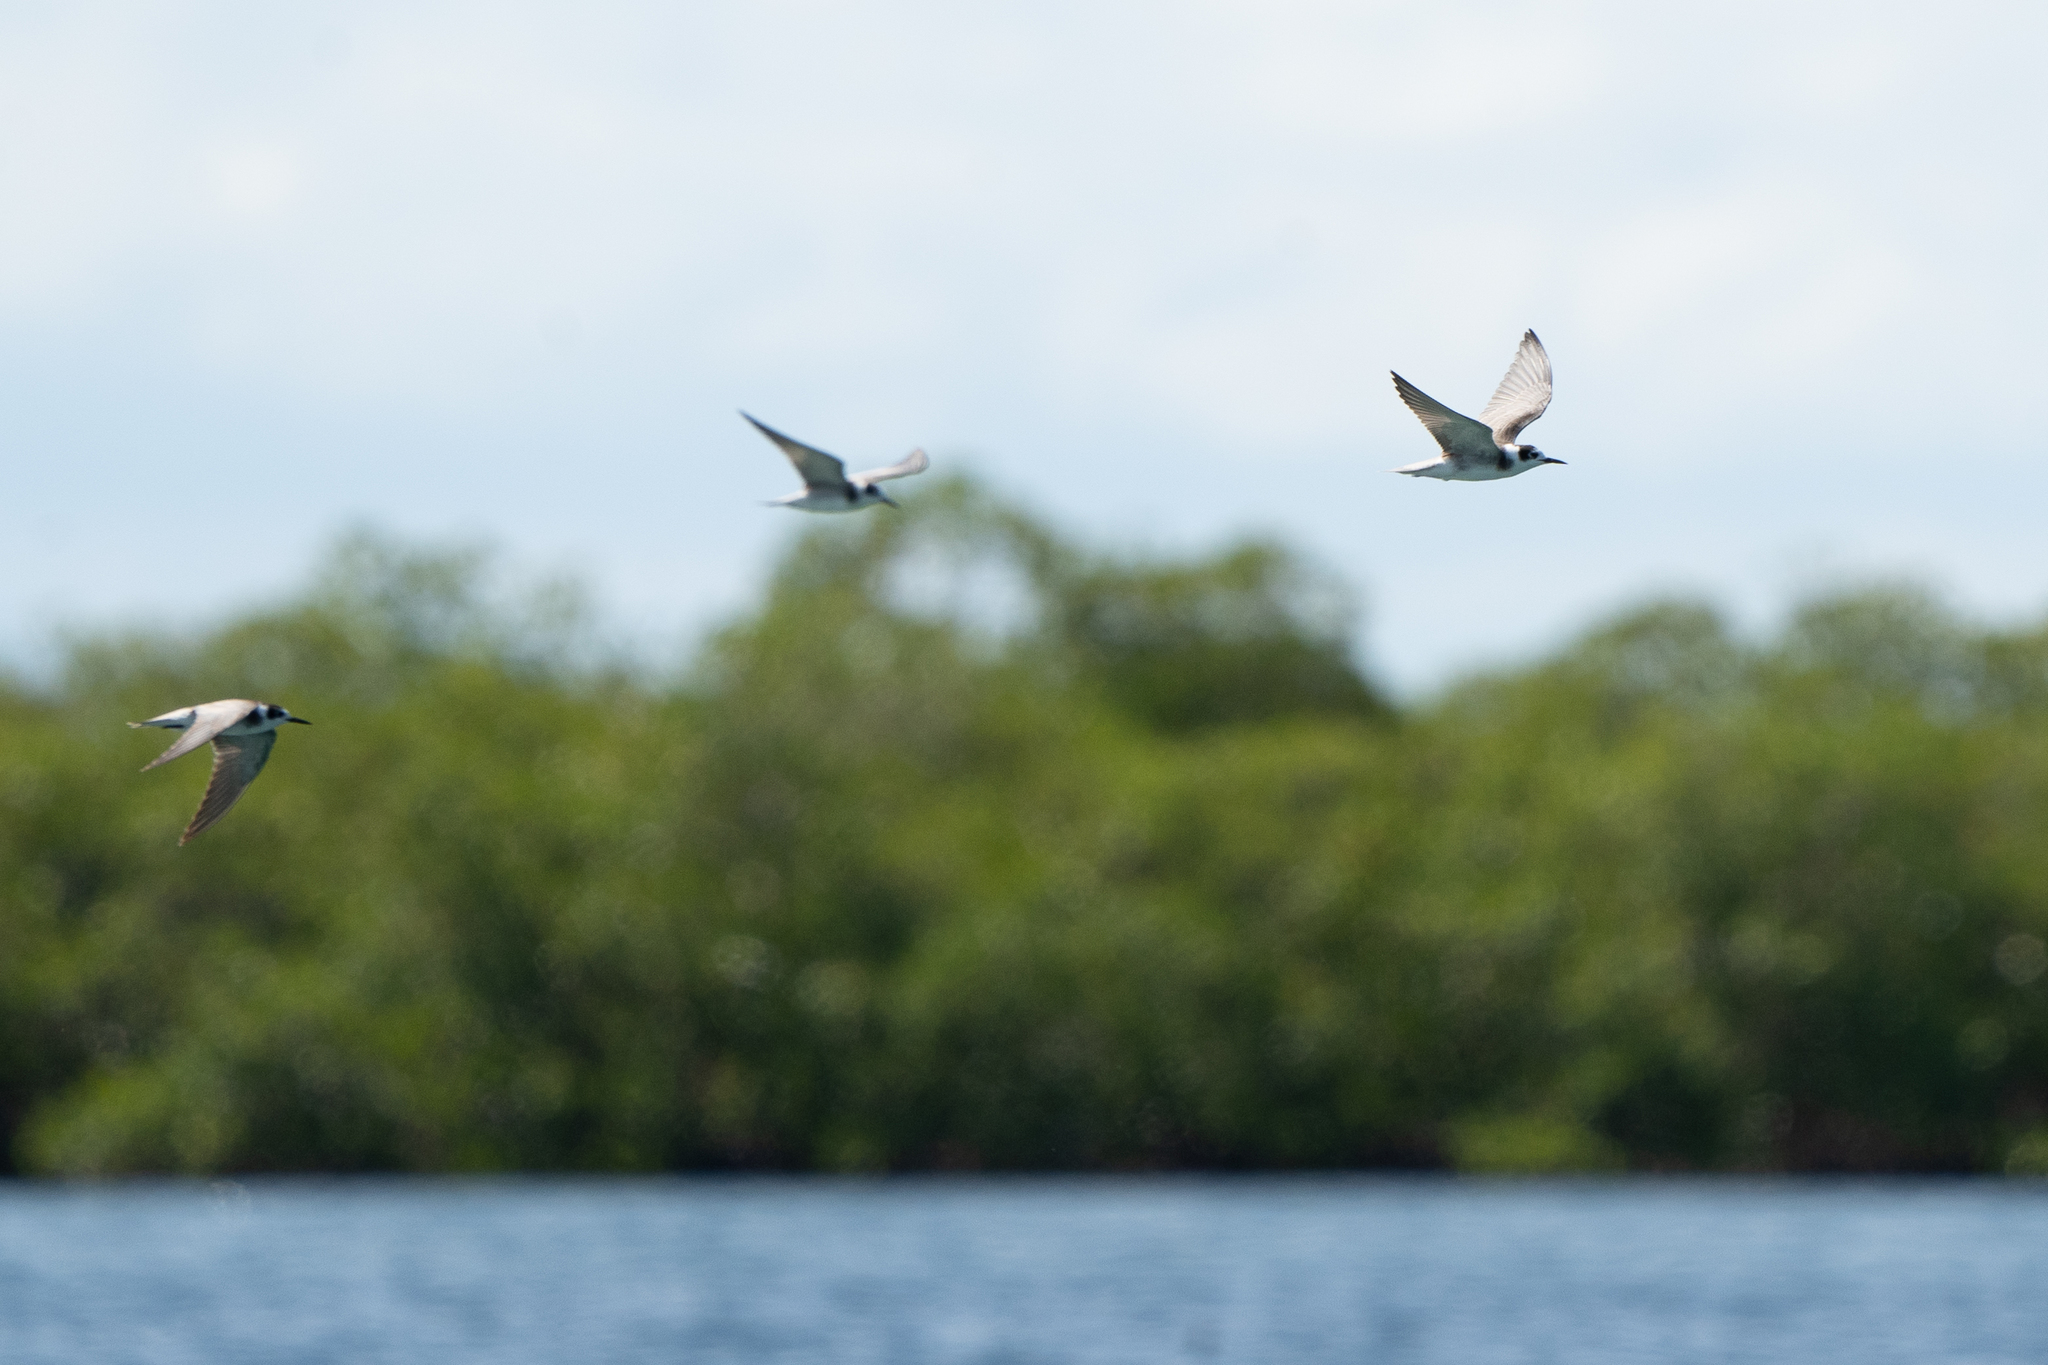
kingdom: Animalia
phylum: Chordata
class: Aves
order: Charadriiformes
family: Laridae
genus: Chlidonias
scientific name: Chlidonias niger
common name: Black tern
